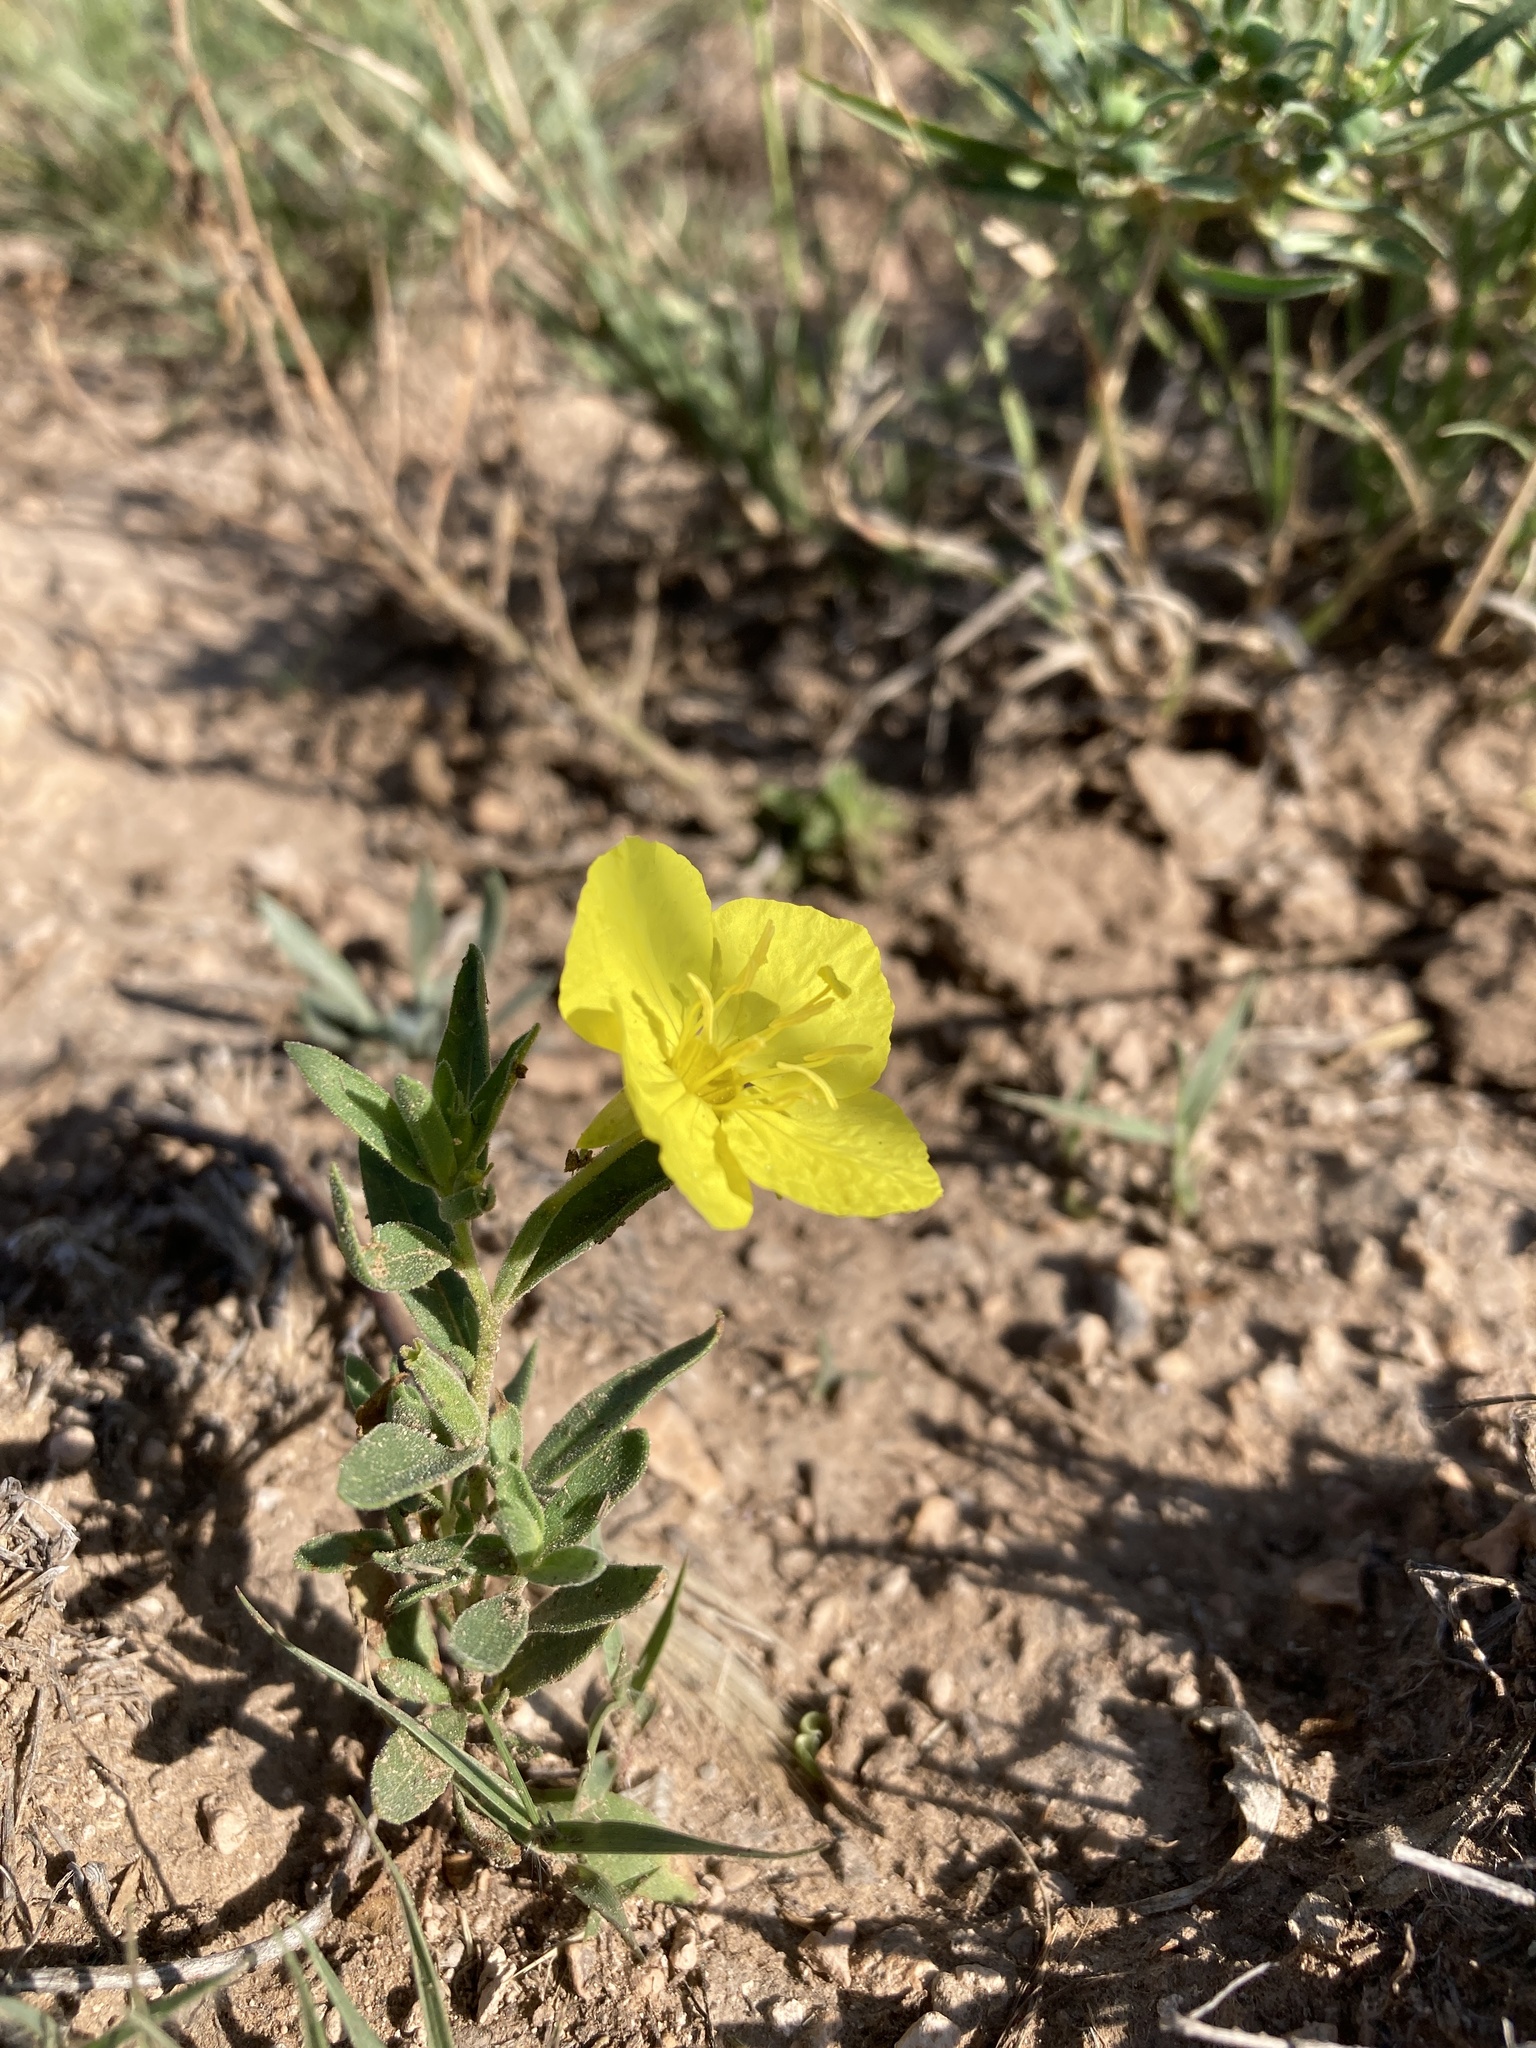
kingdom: Plantae
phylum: Tracheophyta
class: Magnoliopsida
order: Myrtales
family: Onagraceae
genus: Oenothera
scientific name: Oenothera tubicula
